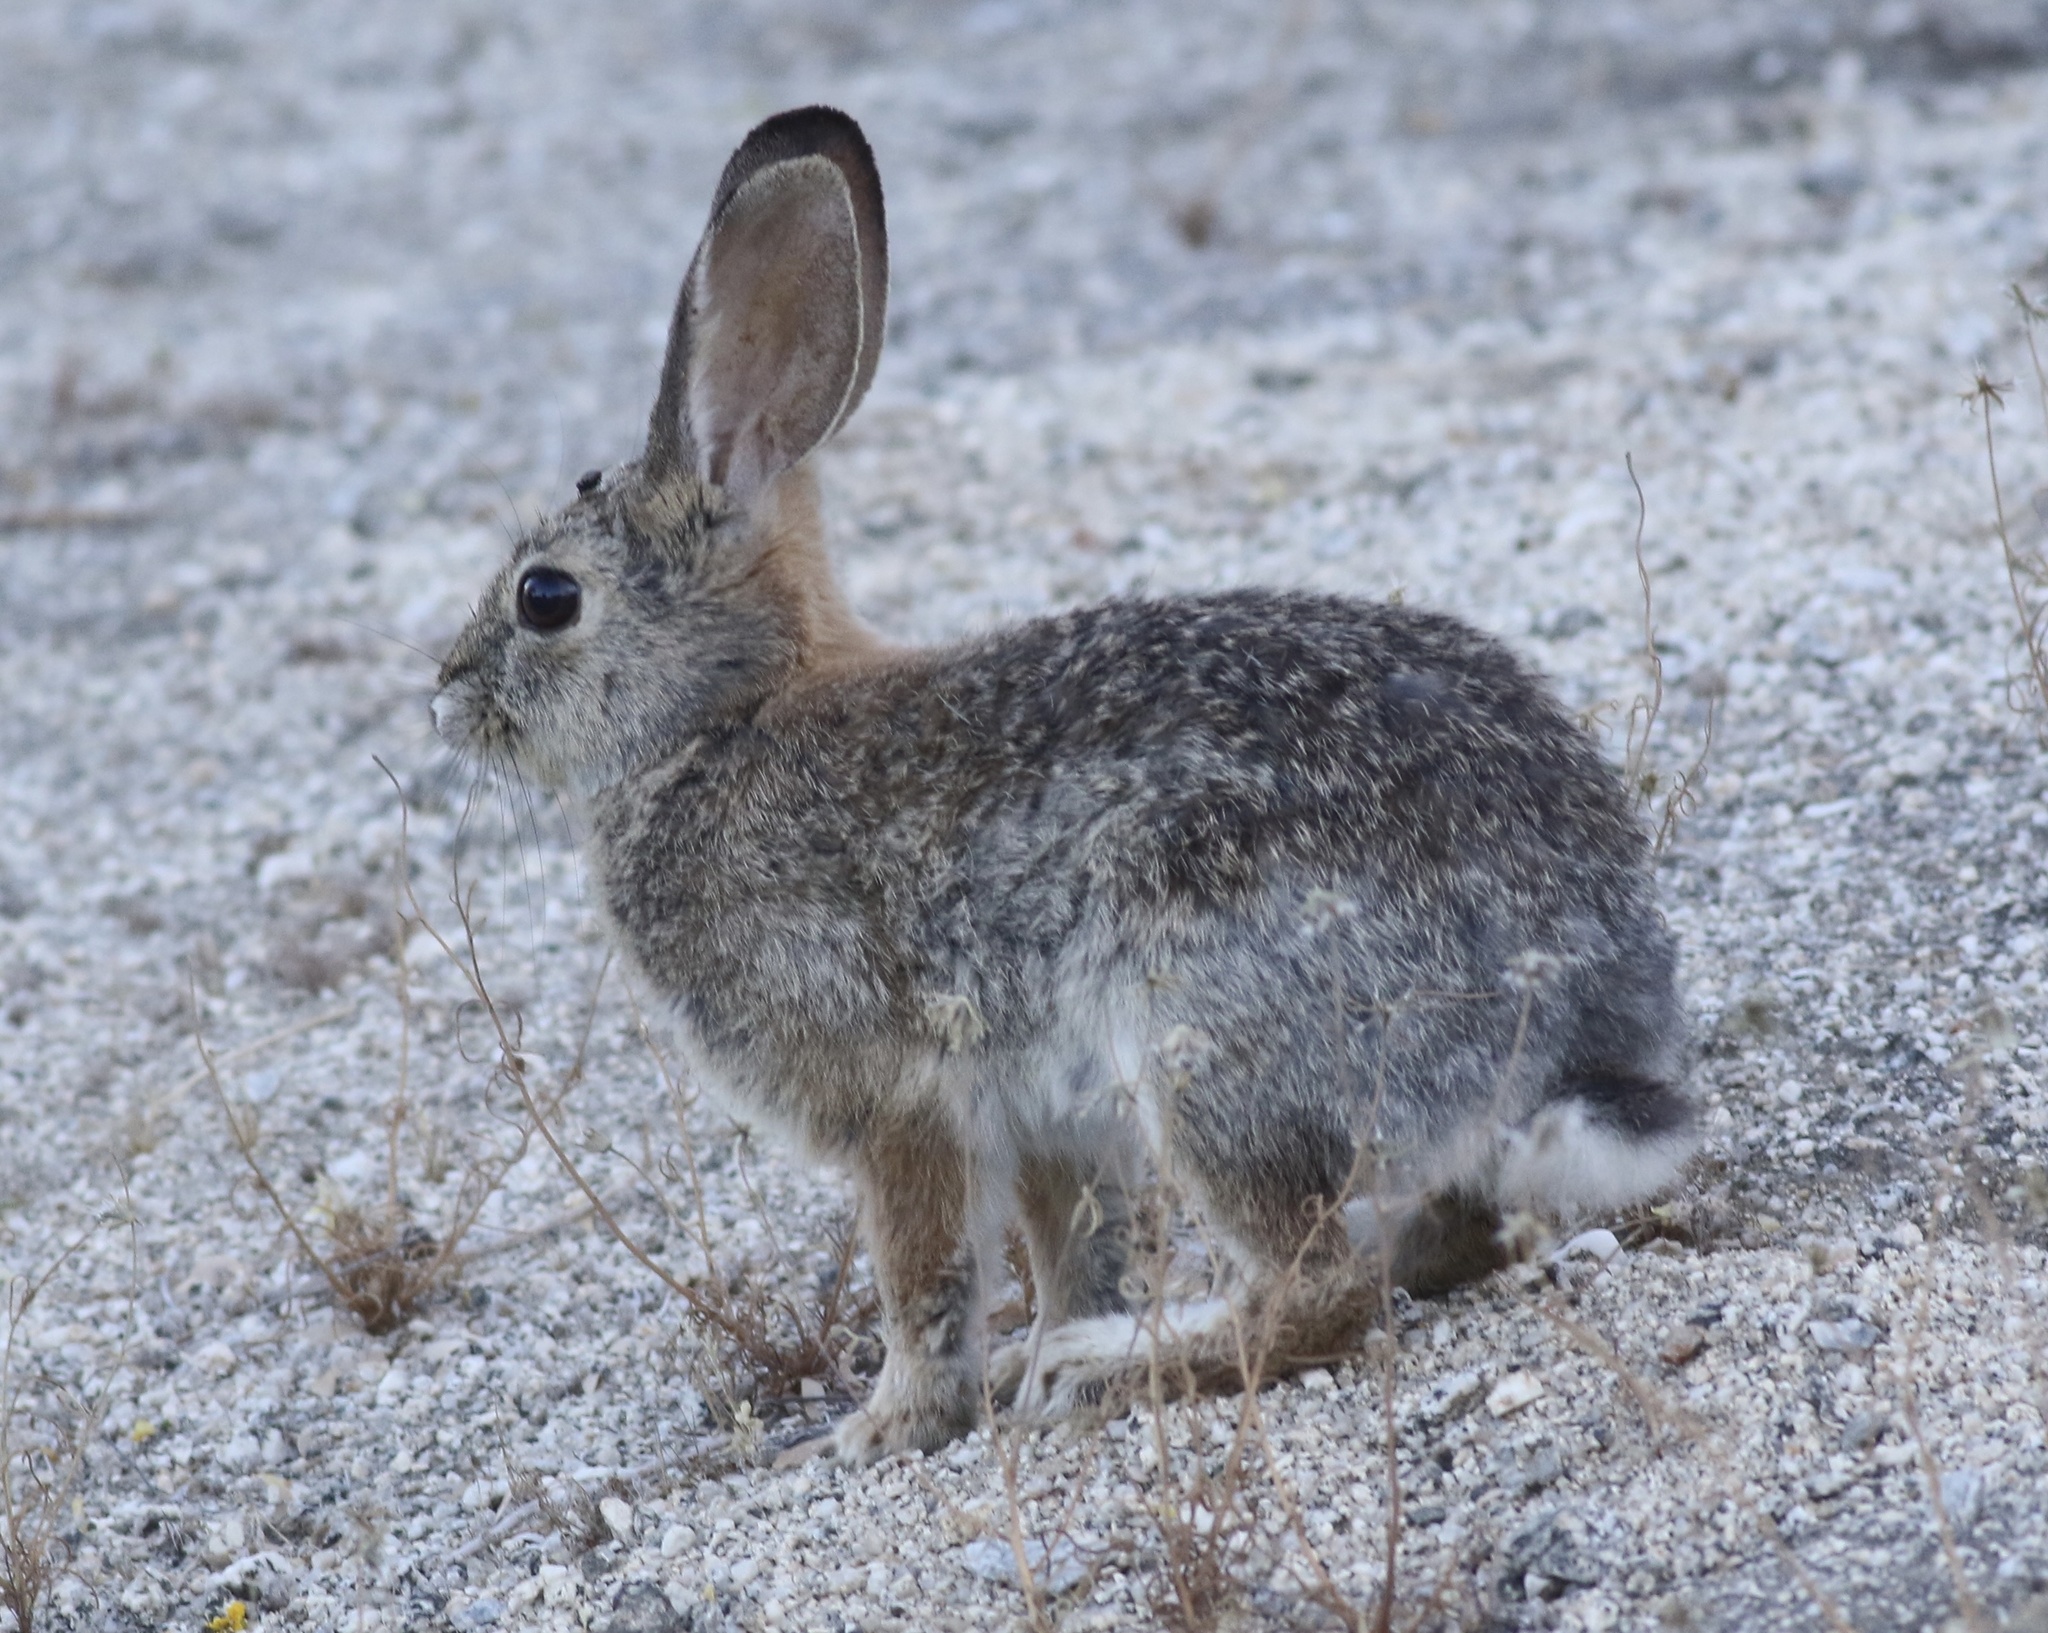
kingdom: Animalia
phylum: Chordata
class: Mammalia
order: Lagomorpha
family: Leporidae
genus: Sylvilagus
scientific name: Sylvilagus audubonii
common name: Desert cottontail
